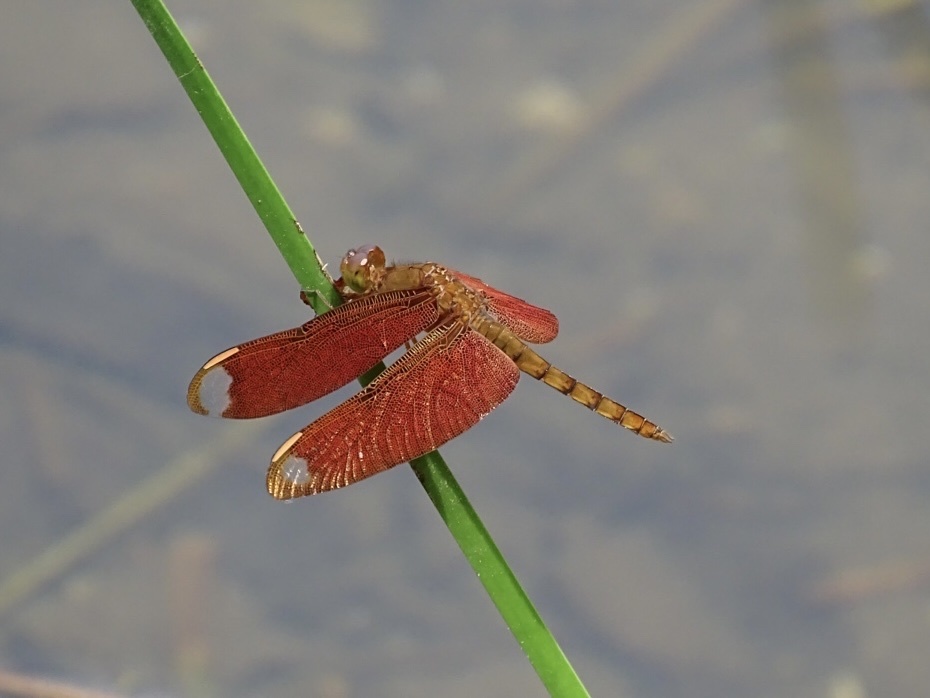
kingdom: Animalia
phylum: Arthropoda
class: Insecta
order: Odonata
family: Libellulidae
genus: Neurothemis
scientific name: Neurothemis fulvia
